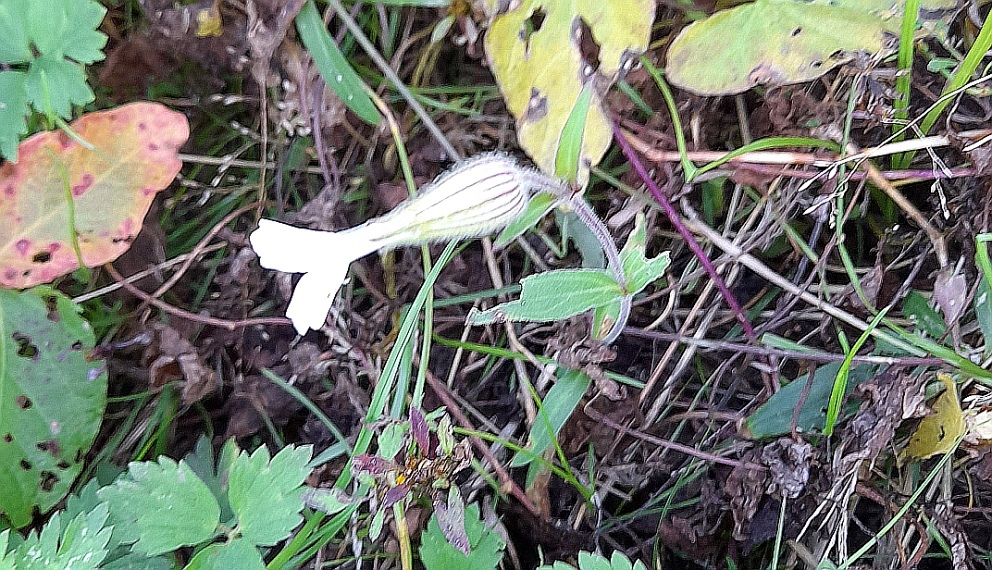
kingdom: Plantae
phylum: Tracheophyta
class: Magnoliopsida
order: Caryophyllales
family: Caryophyllaceae
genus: Silene
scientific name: Silene latifolia
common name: White campion
